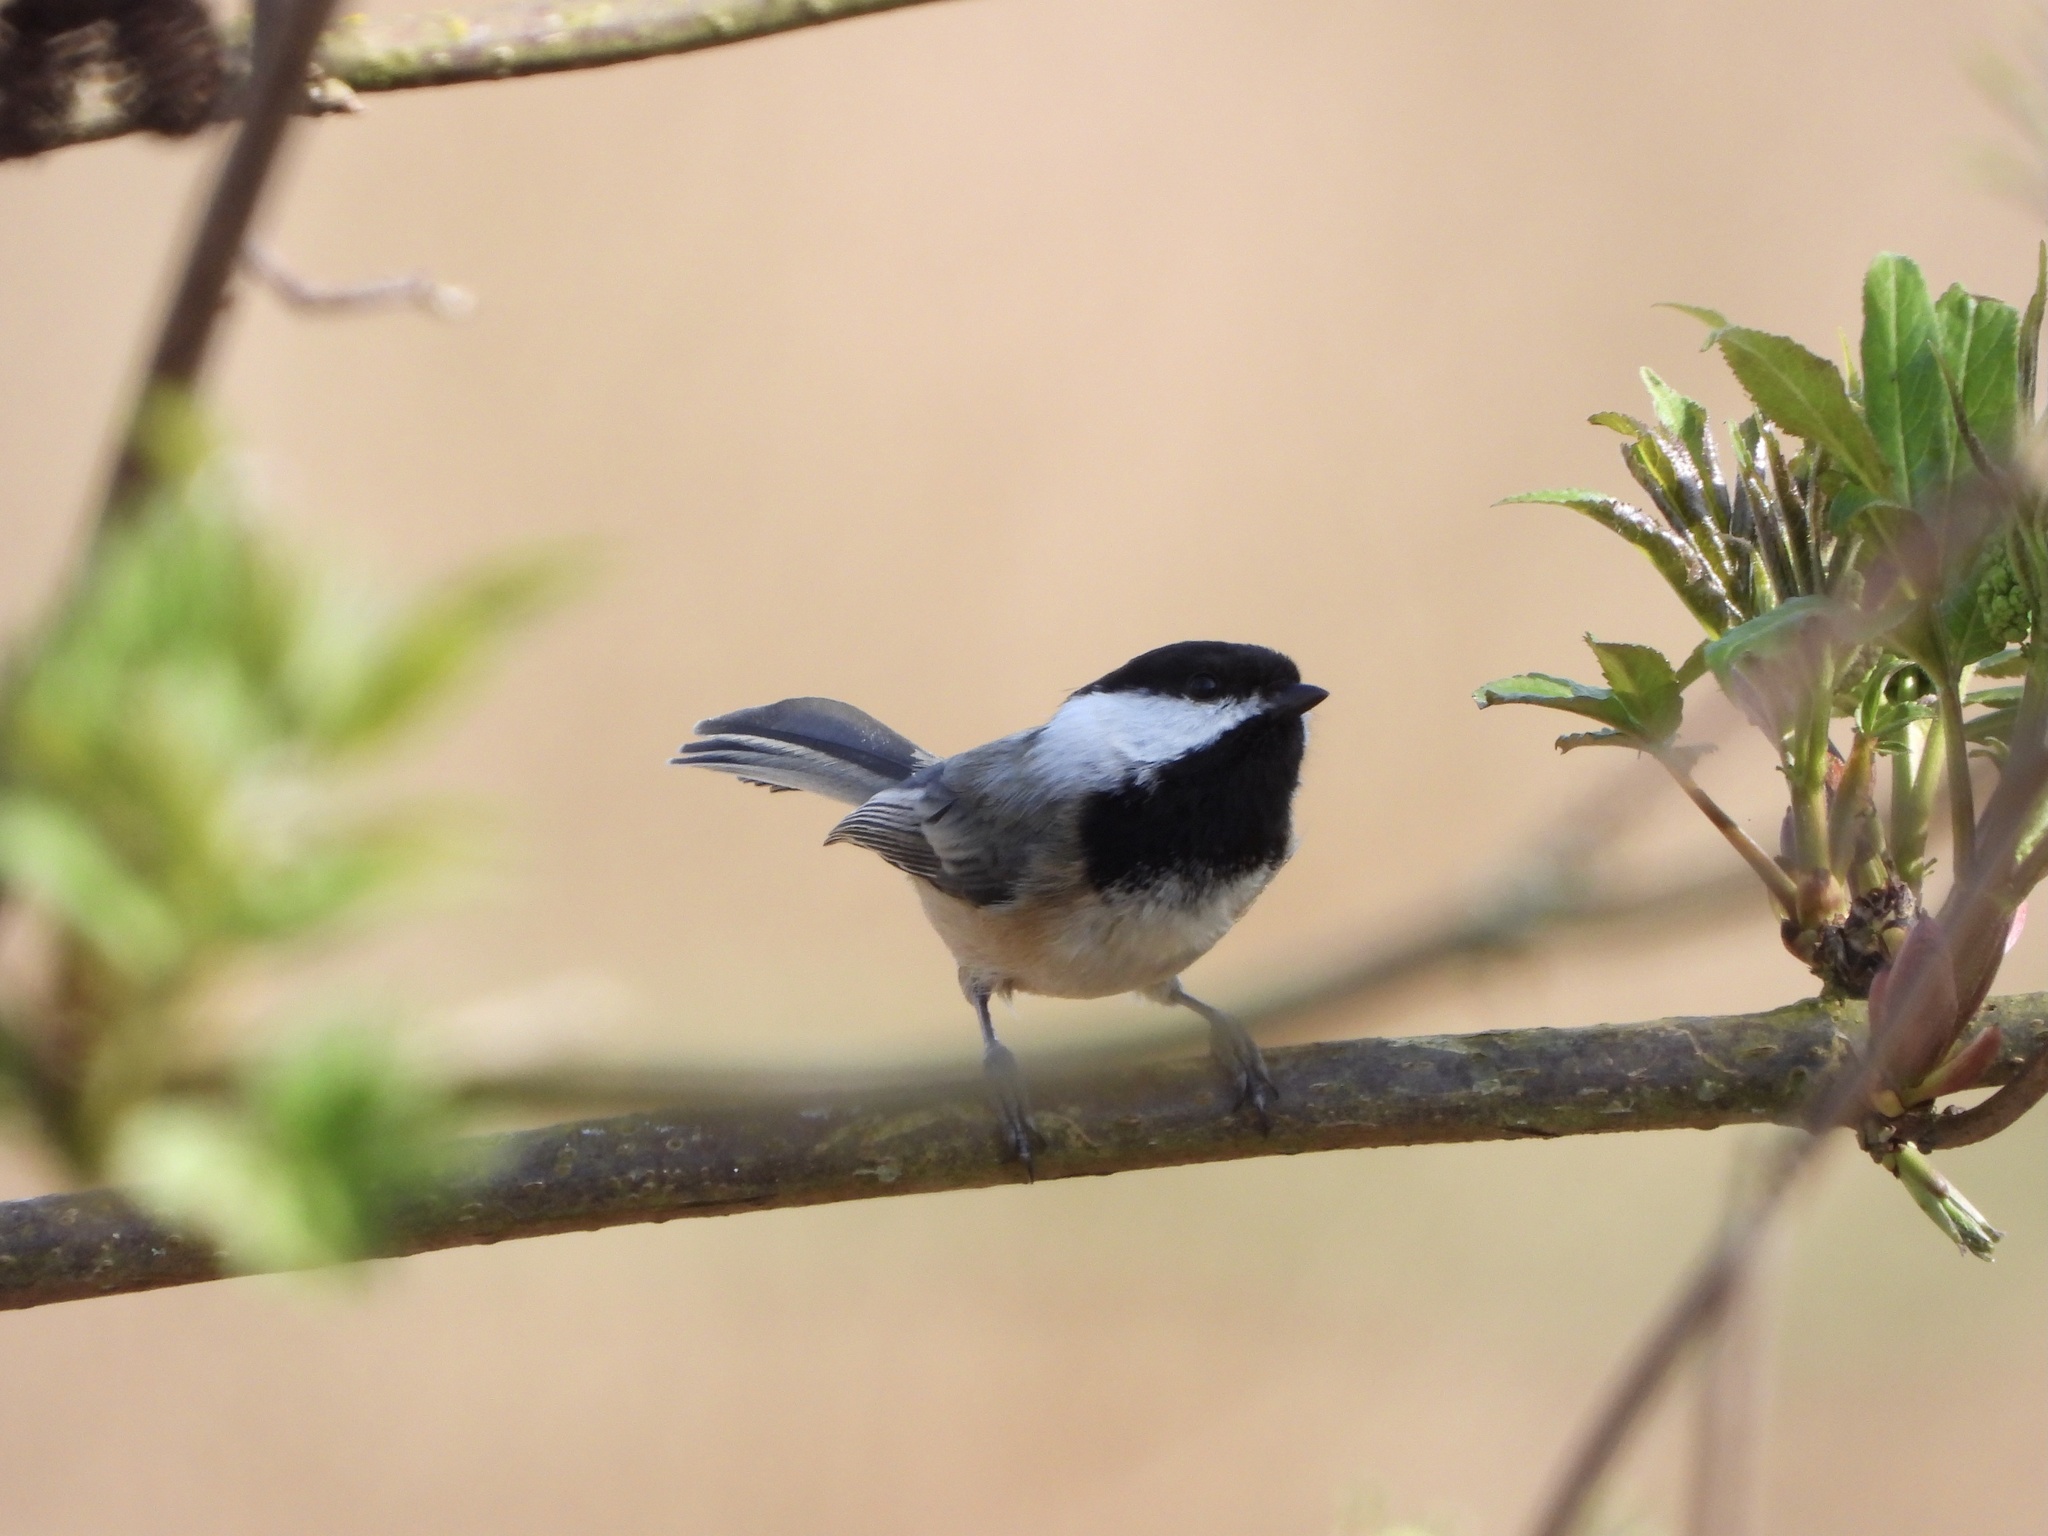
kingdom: Animalia
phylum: Chordata
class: Aves
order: Passeriformes
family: Paridae
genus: Poecile
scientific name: Poecile atricapillus
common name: Black-capped chickadee
